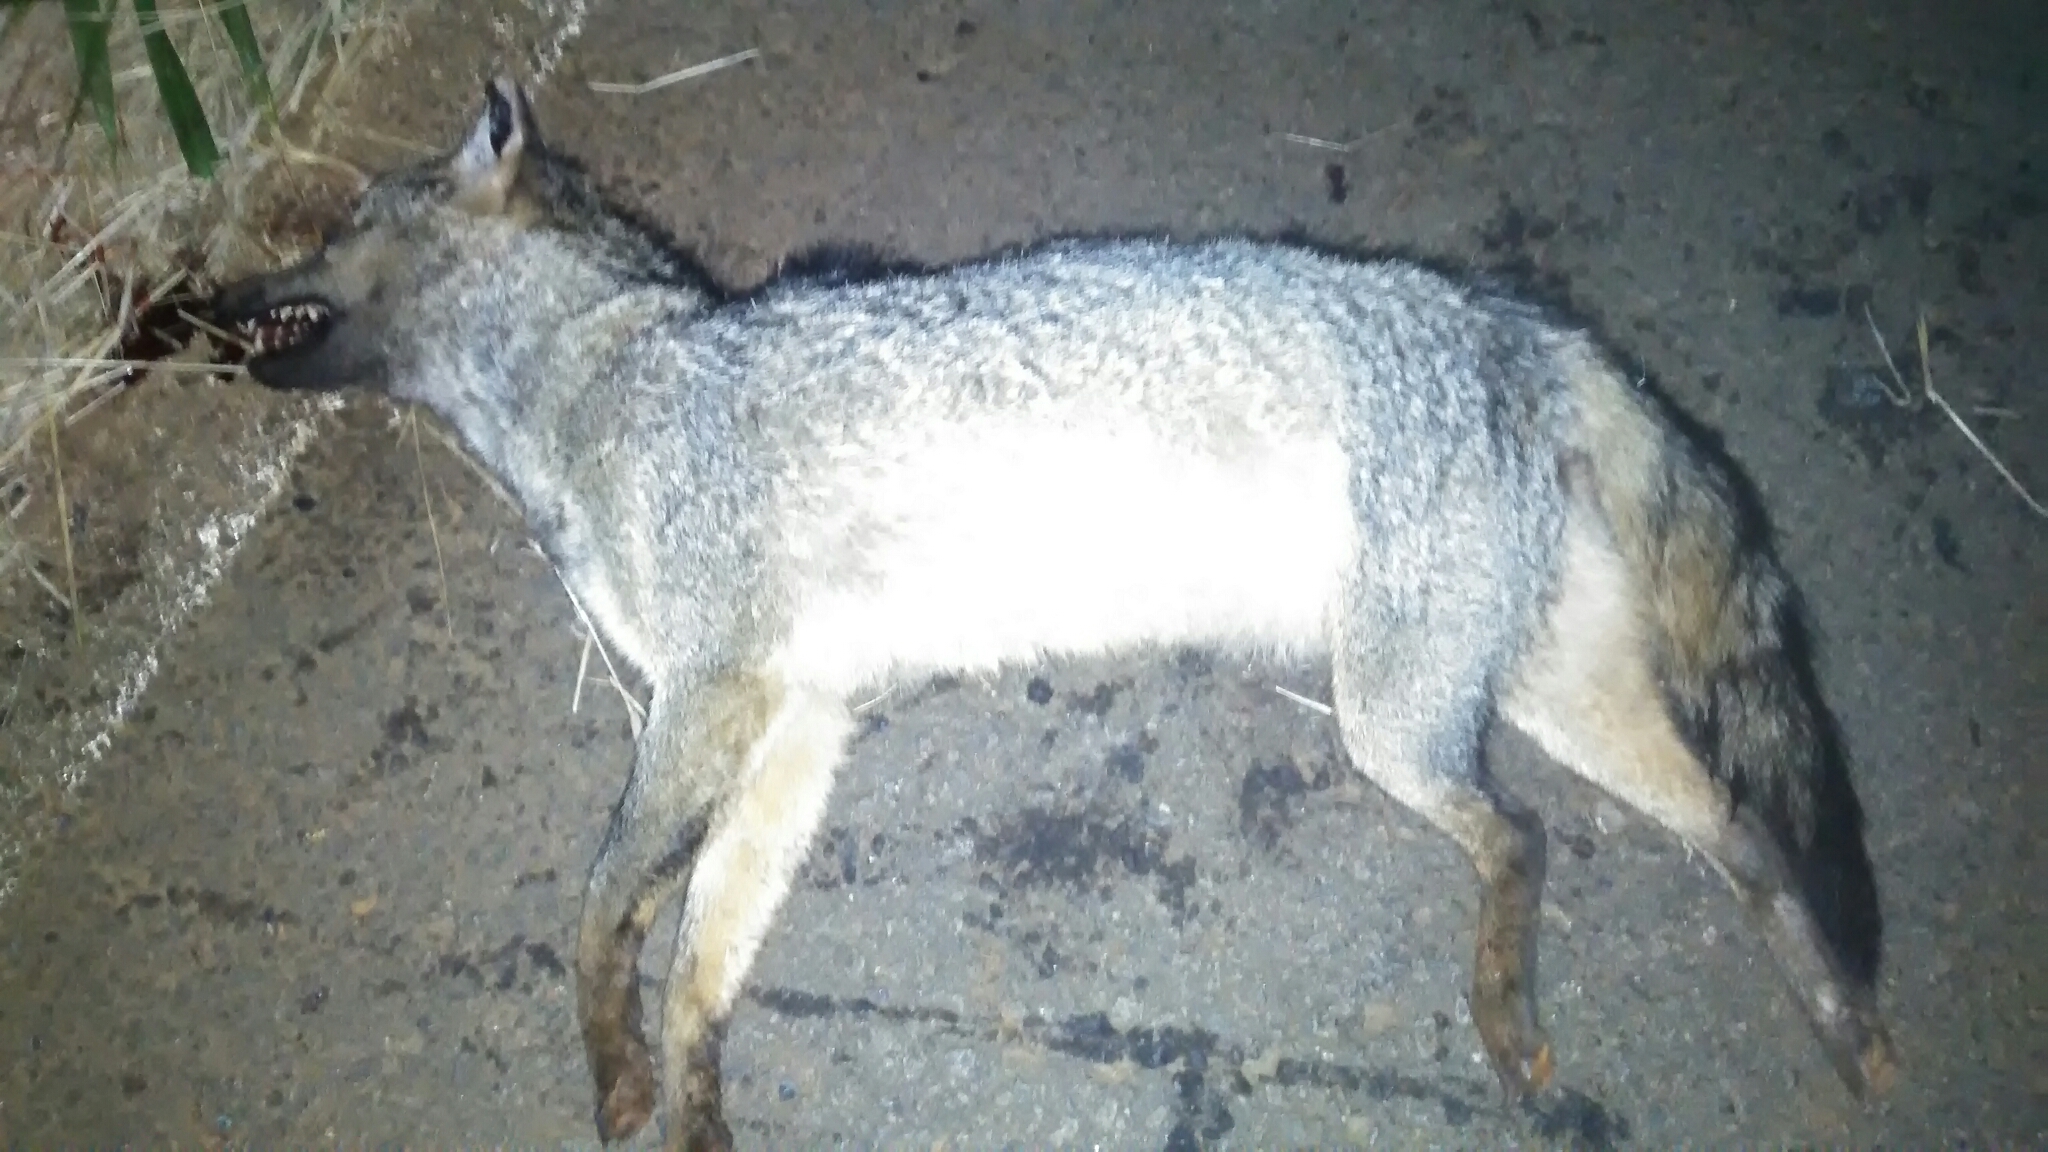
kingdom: Animalia
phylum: Chordata
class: Mammalia
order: Carnivora
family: Canidae
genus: Cerdocyon
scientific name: Cerdocyon thous
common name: Crab-eating fox
